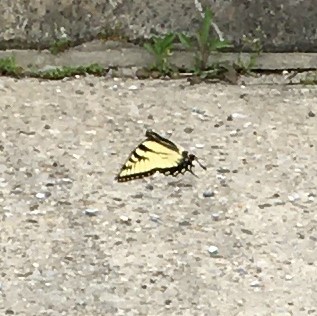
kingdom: Animalia
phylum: Arthropoda
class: Insecta
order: Lepidoptera
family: Papilionidae
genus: Papilio
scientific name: Papilio glaucus
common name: Tiger swallowtail
